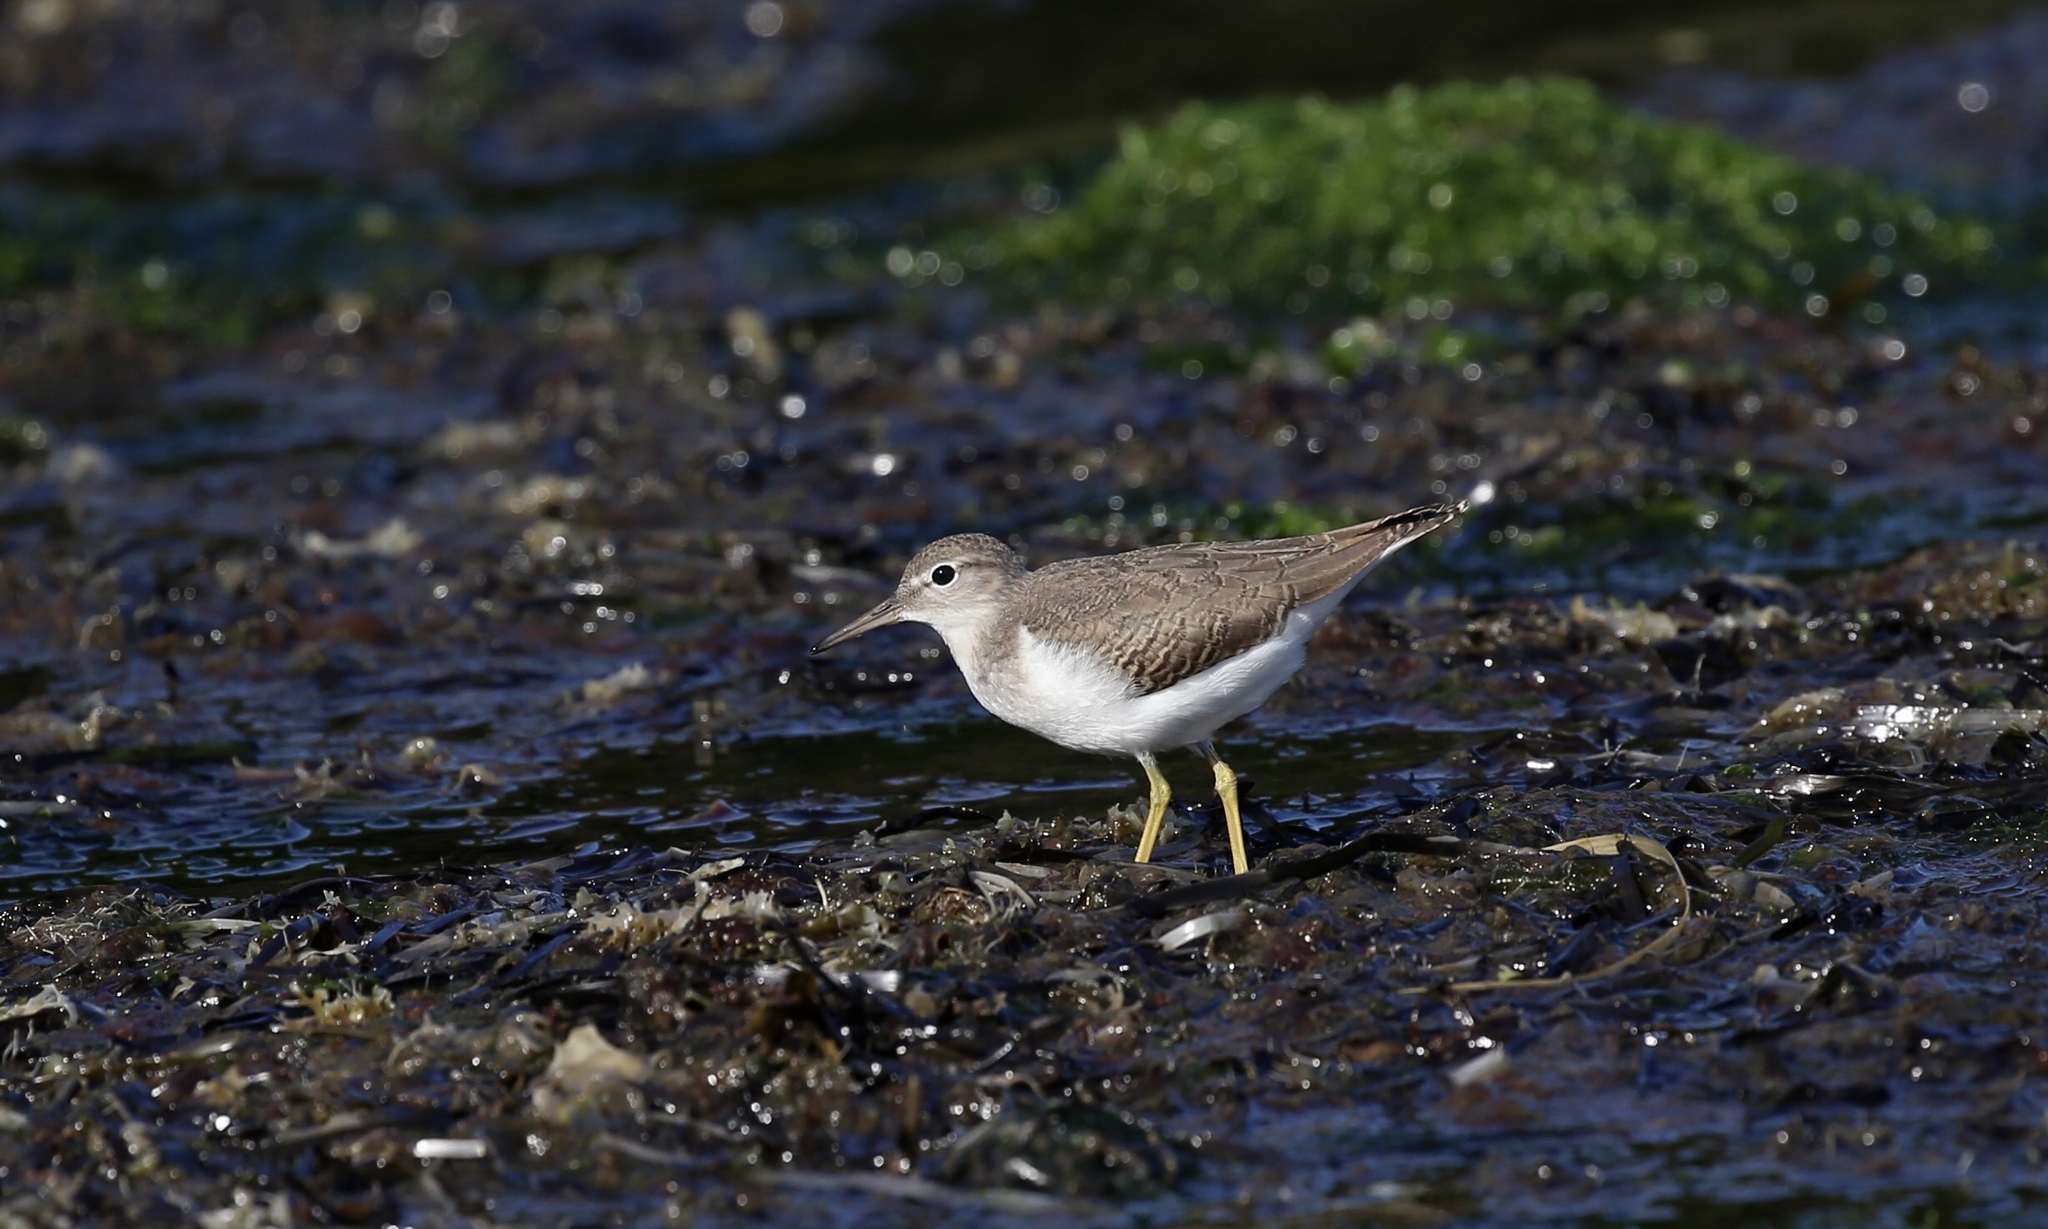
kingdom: Animalia
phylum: Chordata
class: Aves
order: Charadriiformes
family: Scolopacidae
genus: Actitis
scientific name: Actitis macularius
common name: Spotted sandpiper
